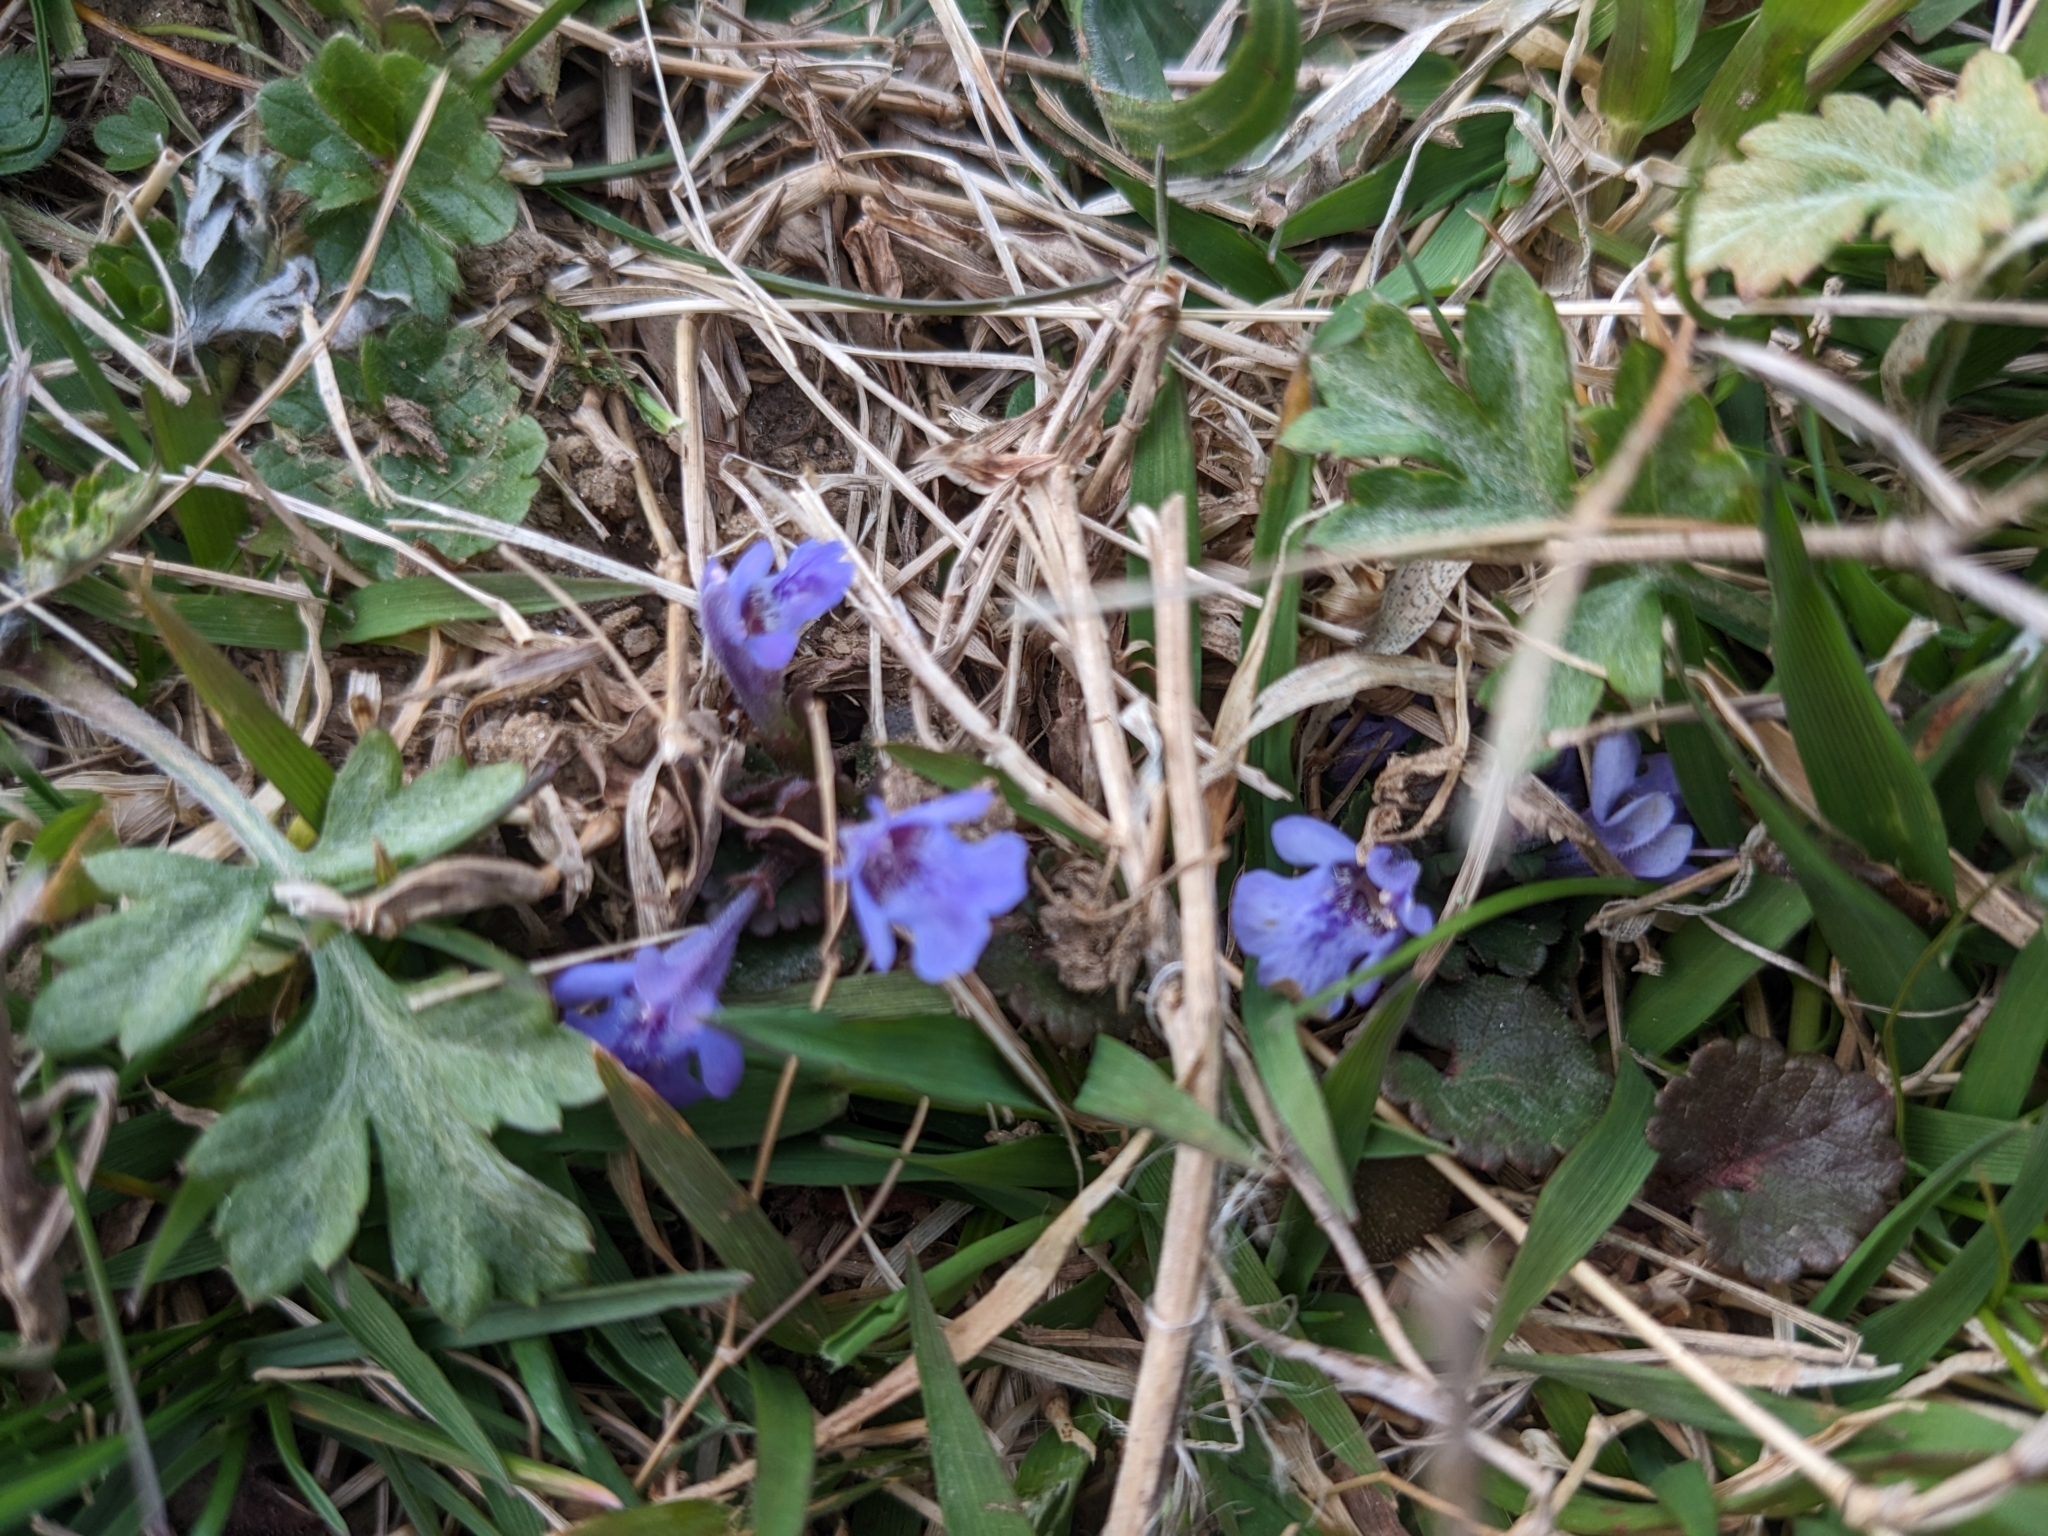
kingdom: Plantae
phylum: Tracheophyta
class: Magnoliopsida
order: Lamiales
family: Lamiaceae
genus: Glechoma
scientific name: Glechoma hederacea
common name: Ground ivy
